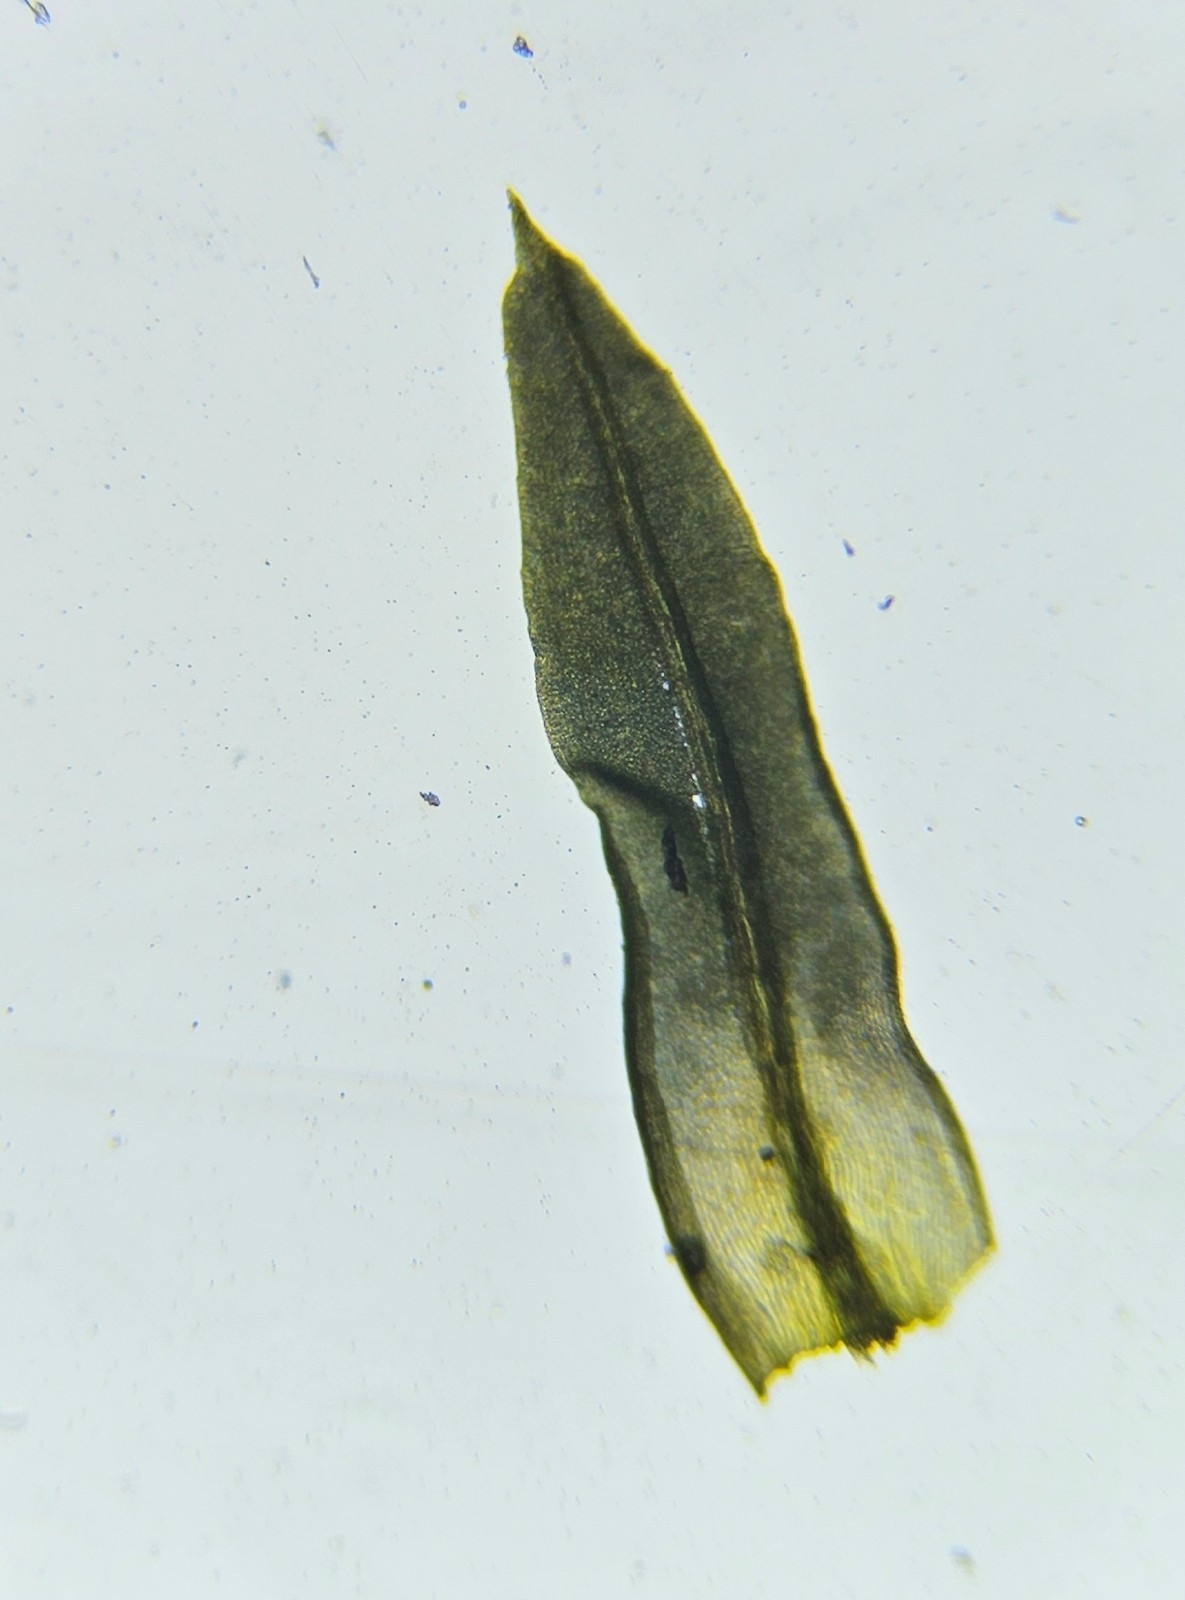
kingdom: Plantae
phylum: Bryophyta
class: Bryopsida
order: Pottiales
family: Pottiaceae
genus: Barbula
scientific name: Barbula unguiculata
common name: Prickly beard moss
